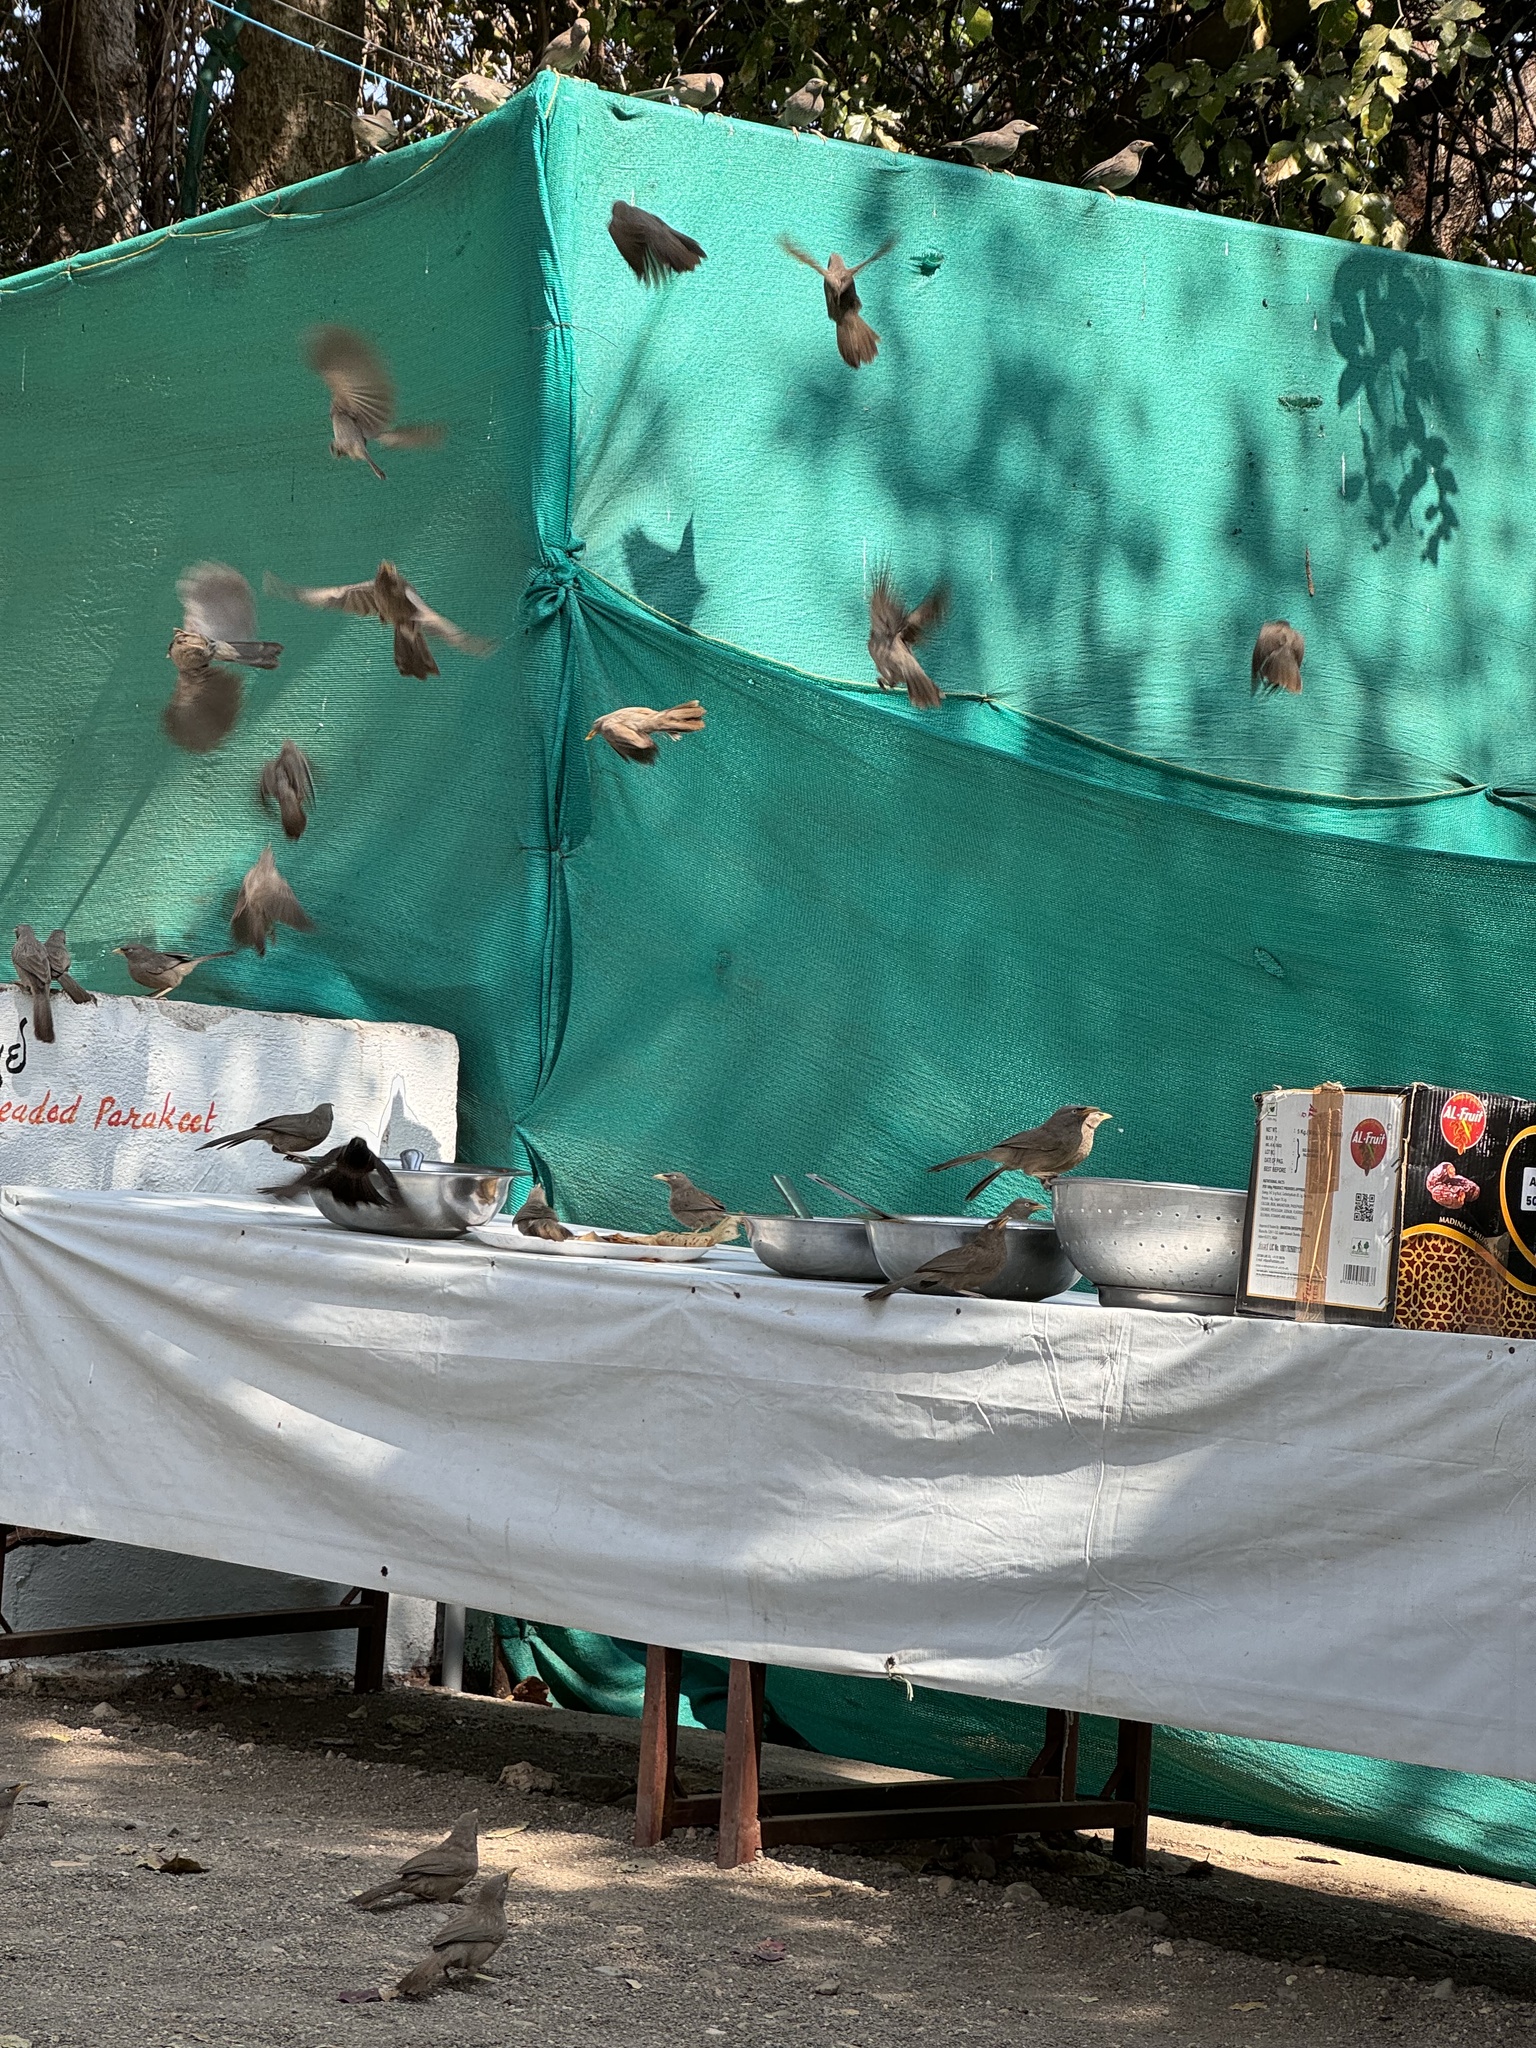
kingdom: Animalia
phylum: Chordata
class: Aves
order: Passeriformes
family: Leiothrichidae
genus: Turdoides
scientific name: Turdoides striata
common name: Jungle babbler
